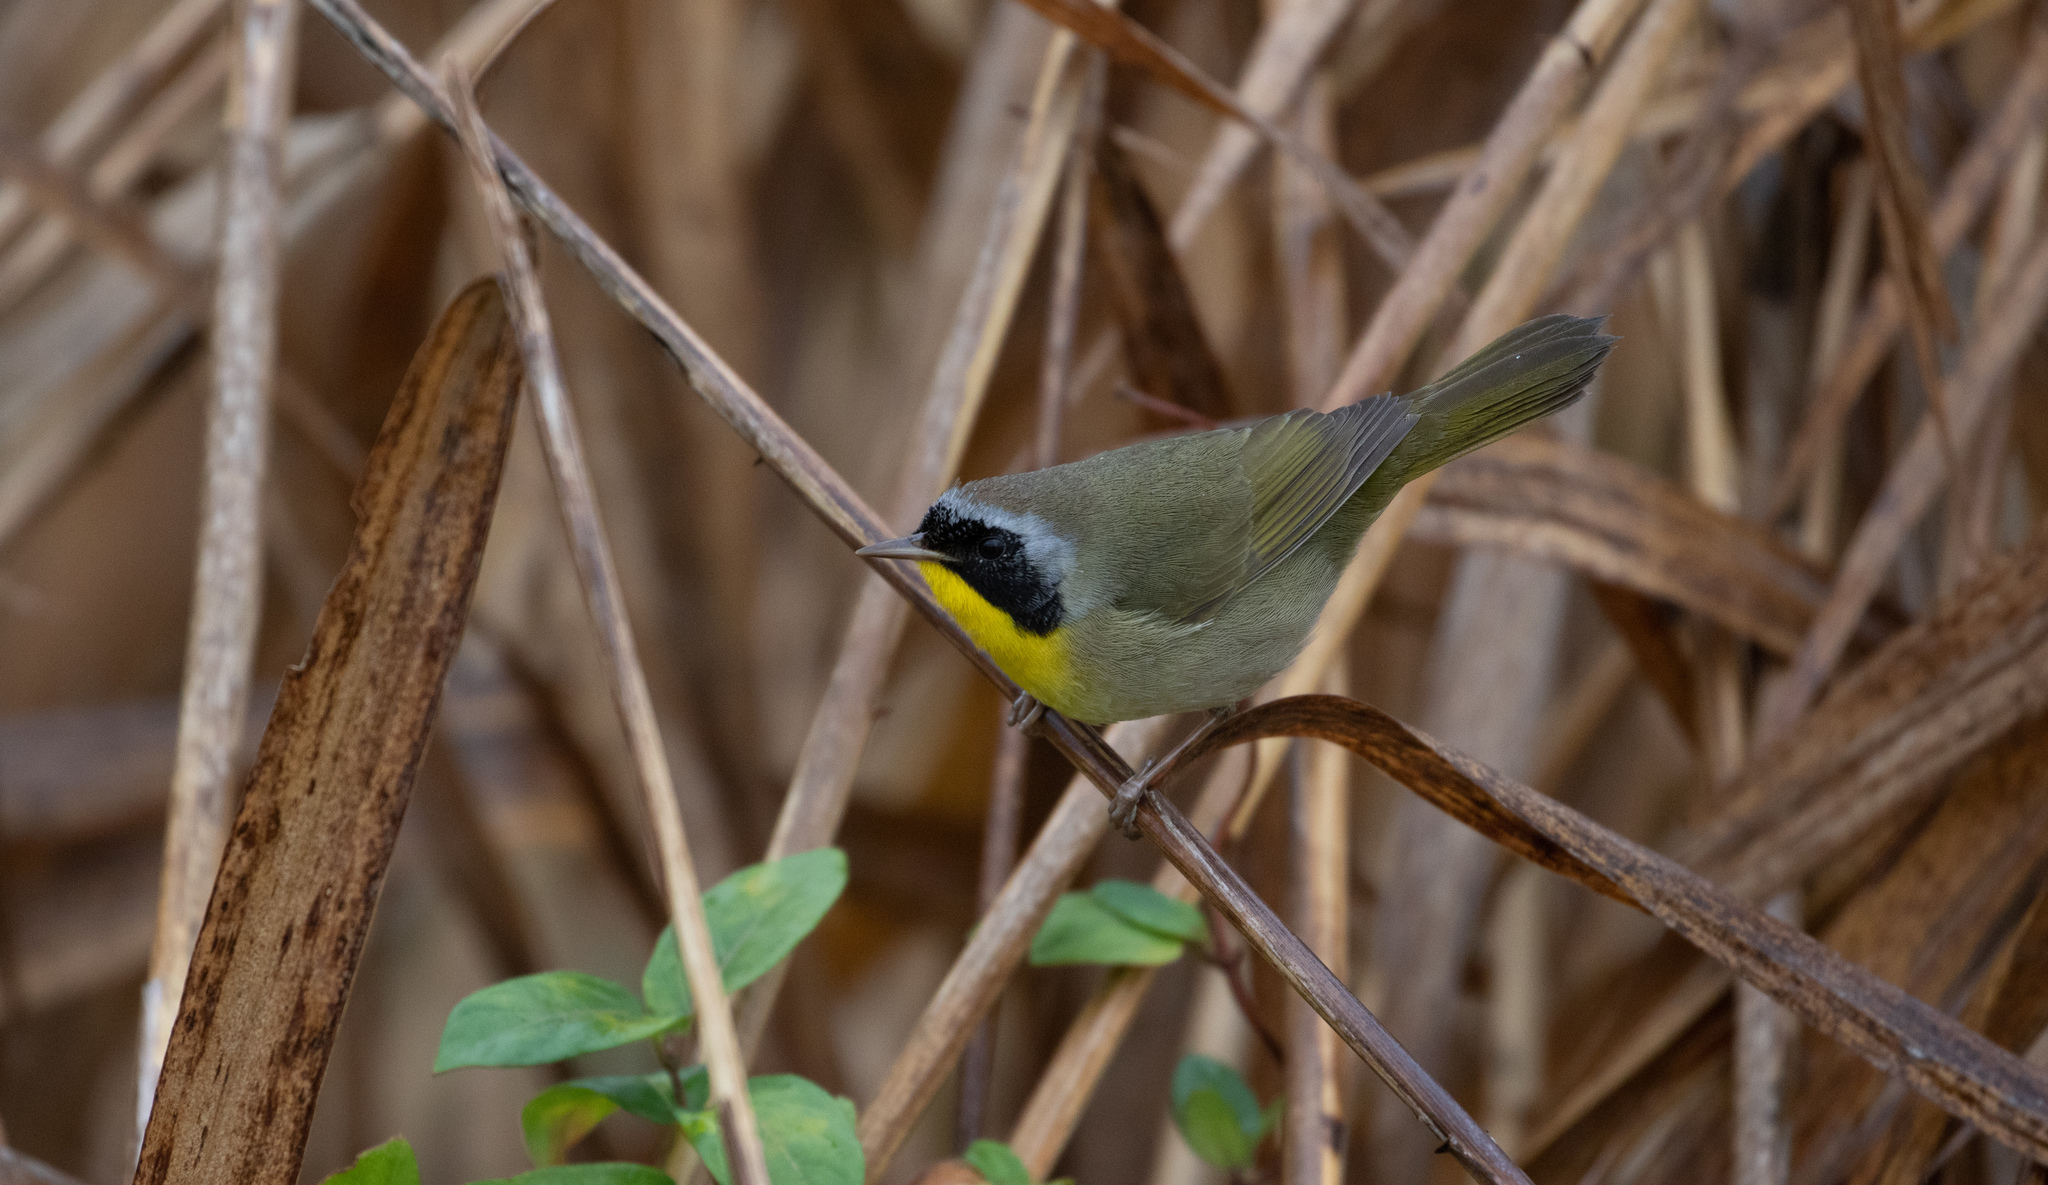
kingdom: Animalia
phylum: Chordata
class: Aves
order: Passeriformes
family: Parulidae
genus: Geothlypis
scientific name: Geothlypis trichas
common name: Common yellowthroat
